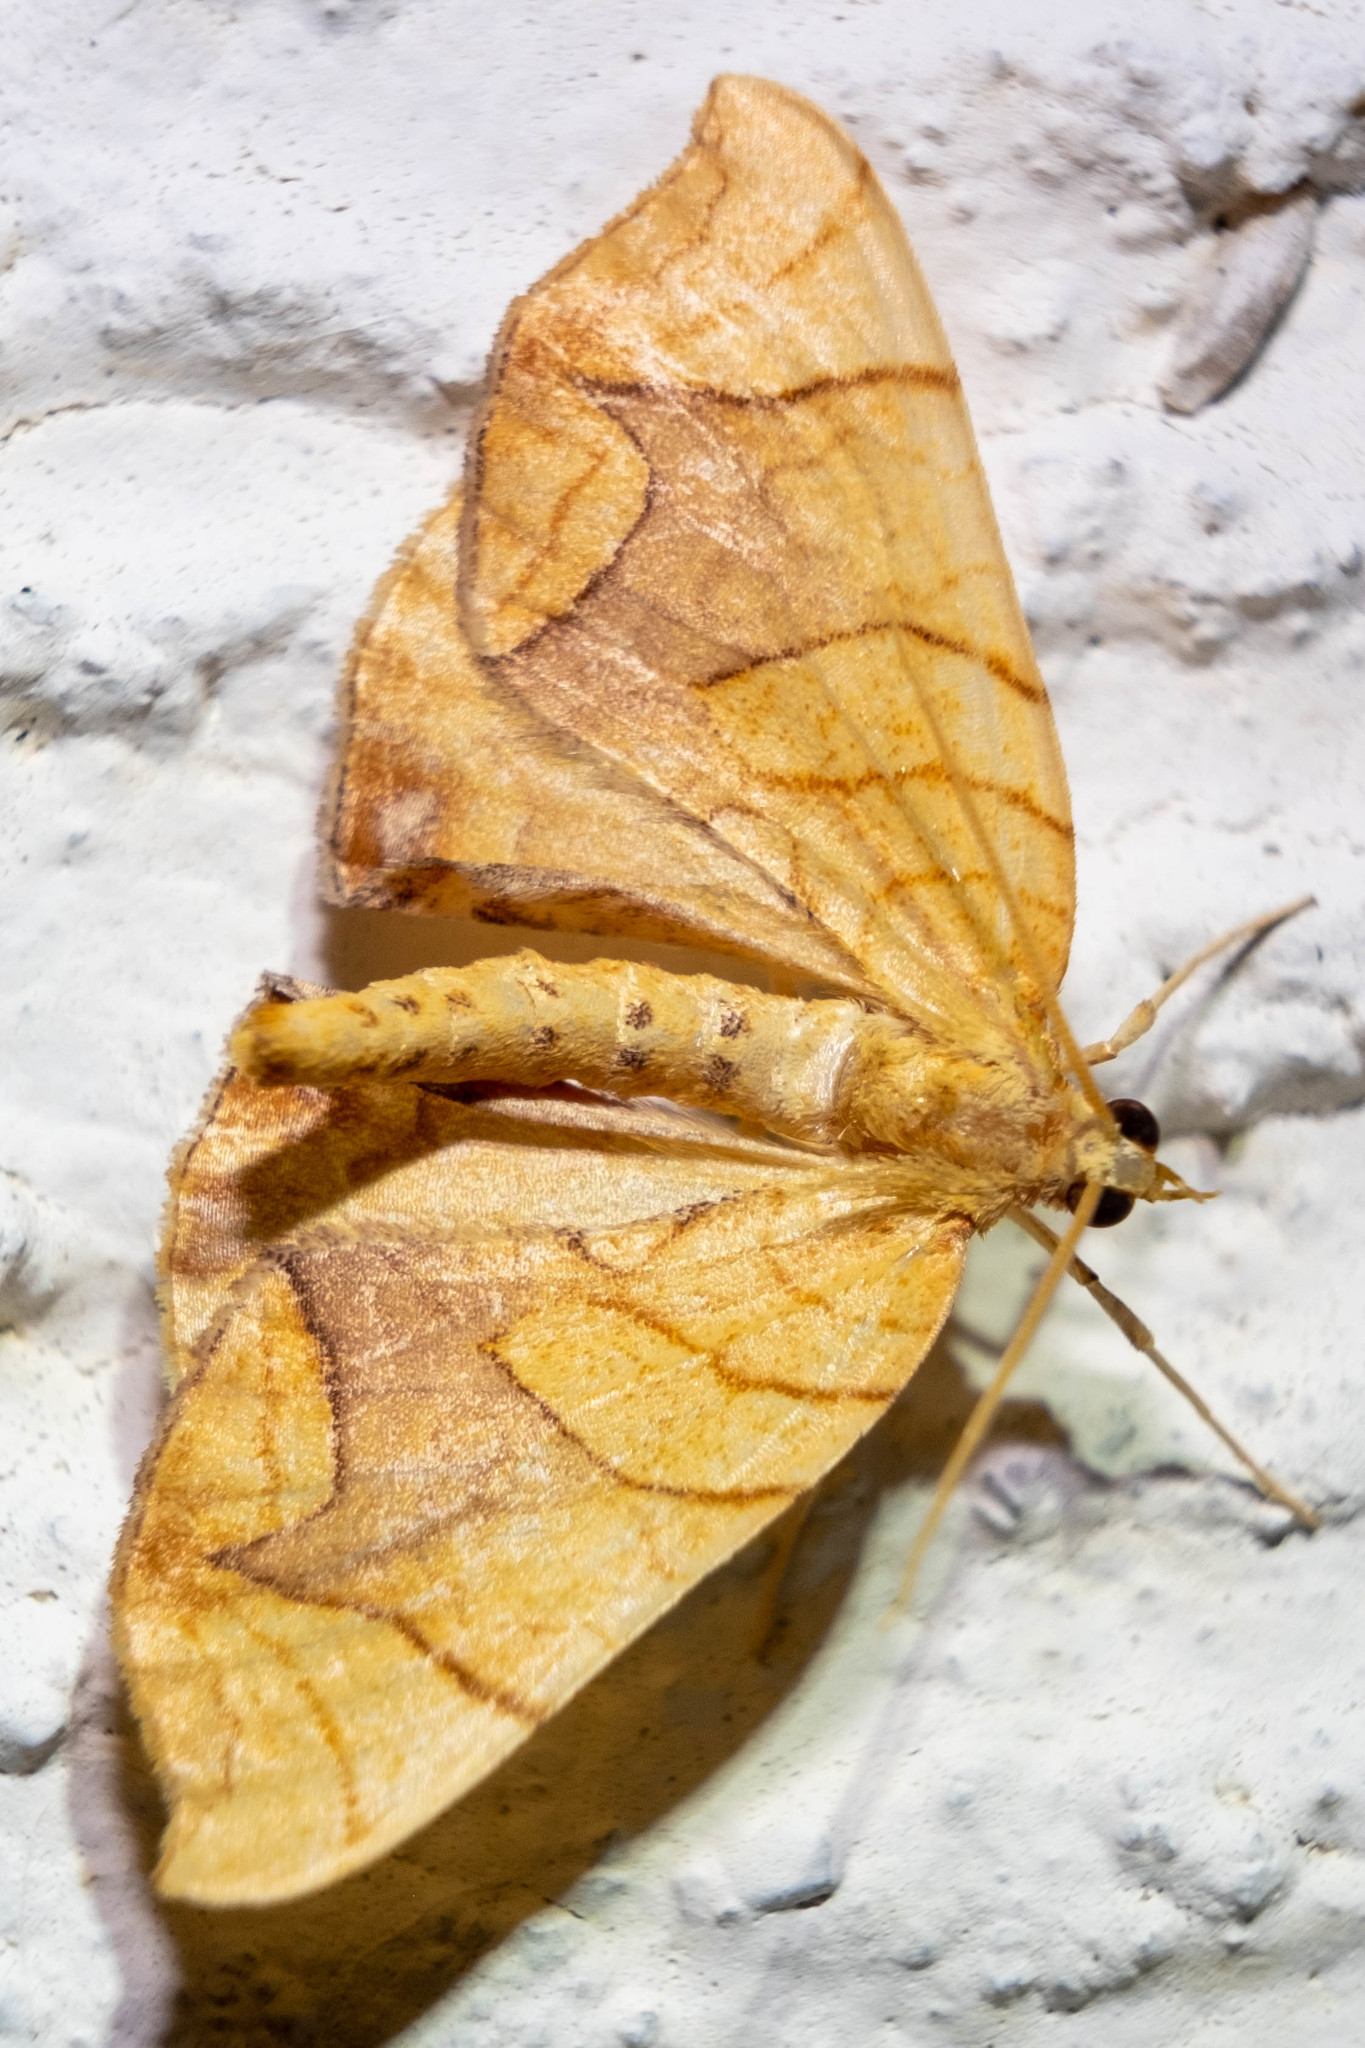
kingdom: Animalia
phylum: Arthropoda
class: Insecta
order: Lepidoptera
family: Geometridae
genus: Eulithis
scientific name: Eulithis diversilineata
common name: Grapevine looper
